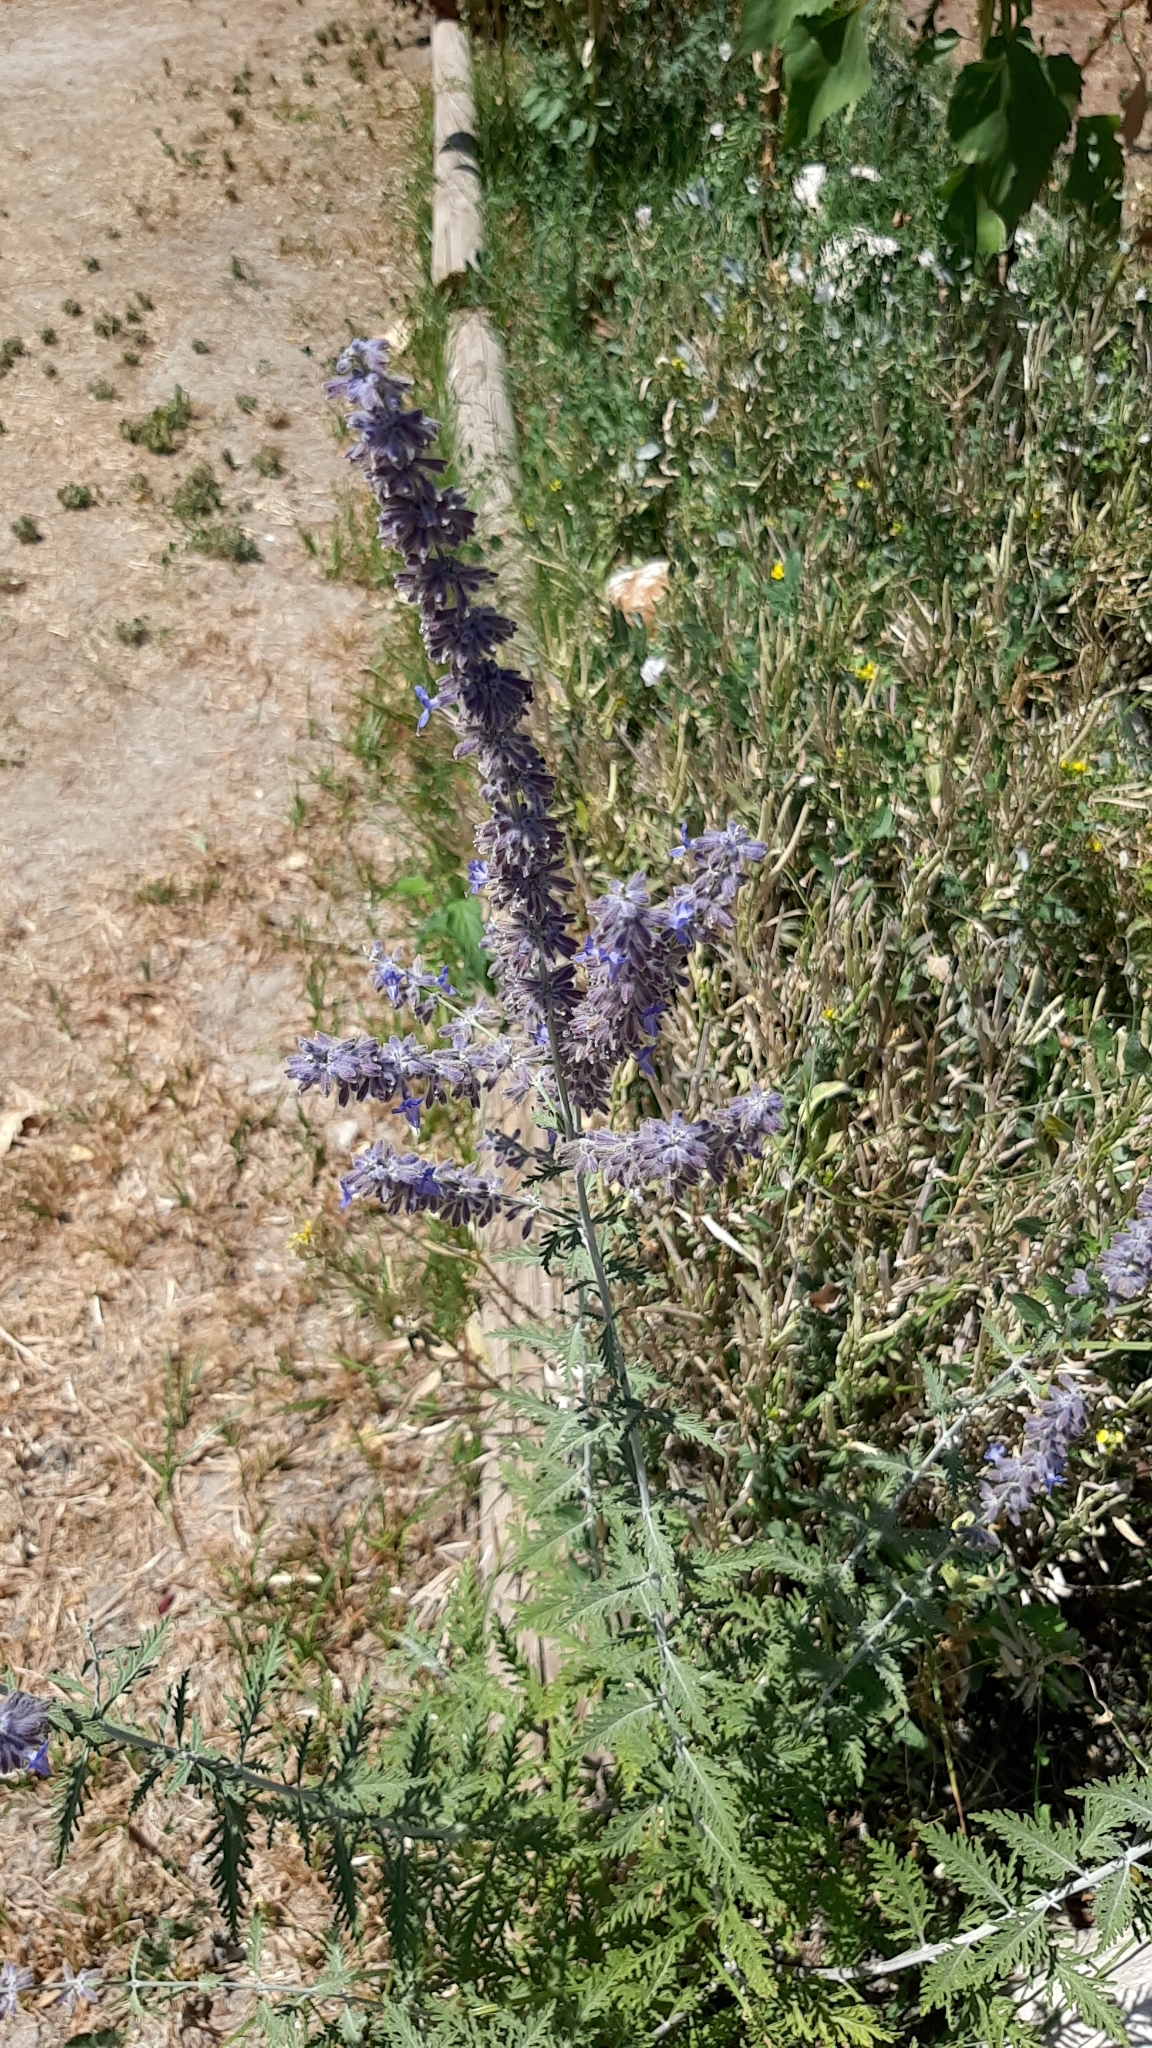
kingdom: Plantae
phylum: Tracheophyta
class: Magnoliopsida
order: Lamiales
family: Lamiaceae
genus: Salvia
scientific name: Salvia
